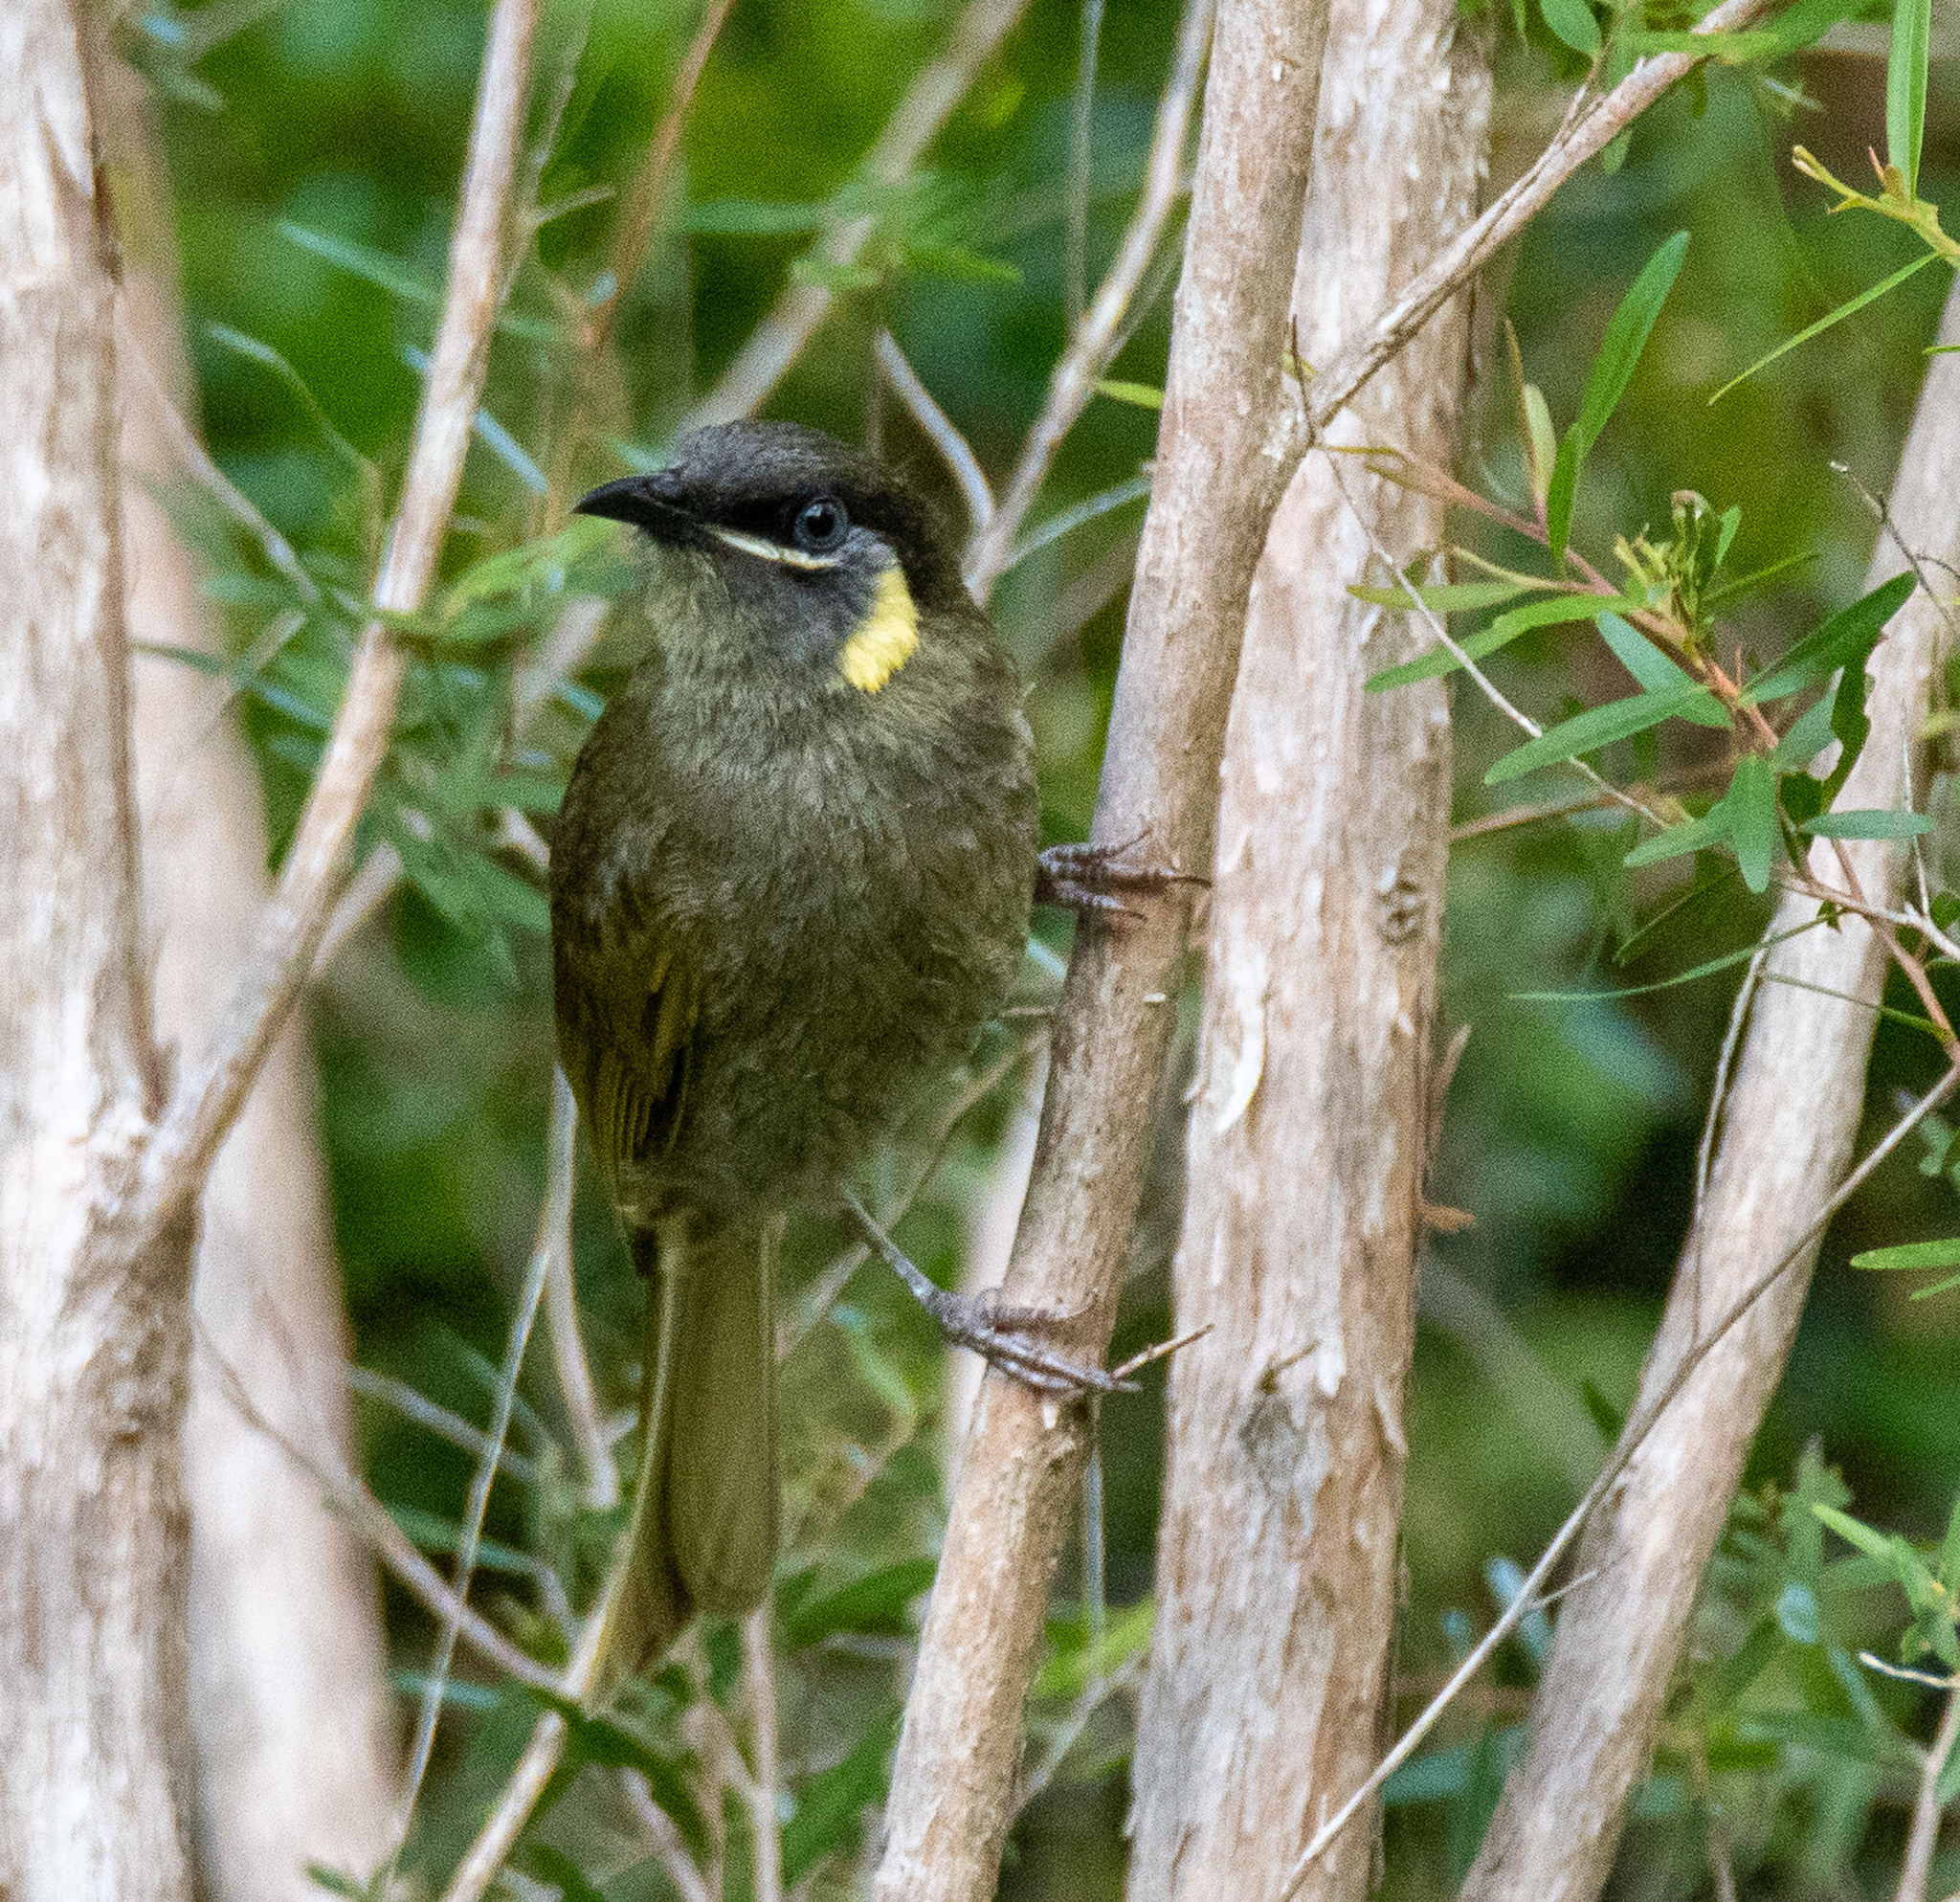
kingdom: Animalia
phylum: Chordata
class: Aves
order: Passeriformes
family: Meliphagidae
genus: Meliphaga
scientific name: Meliphaga lewinii
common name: Lewin's honeyeater
